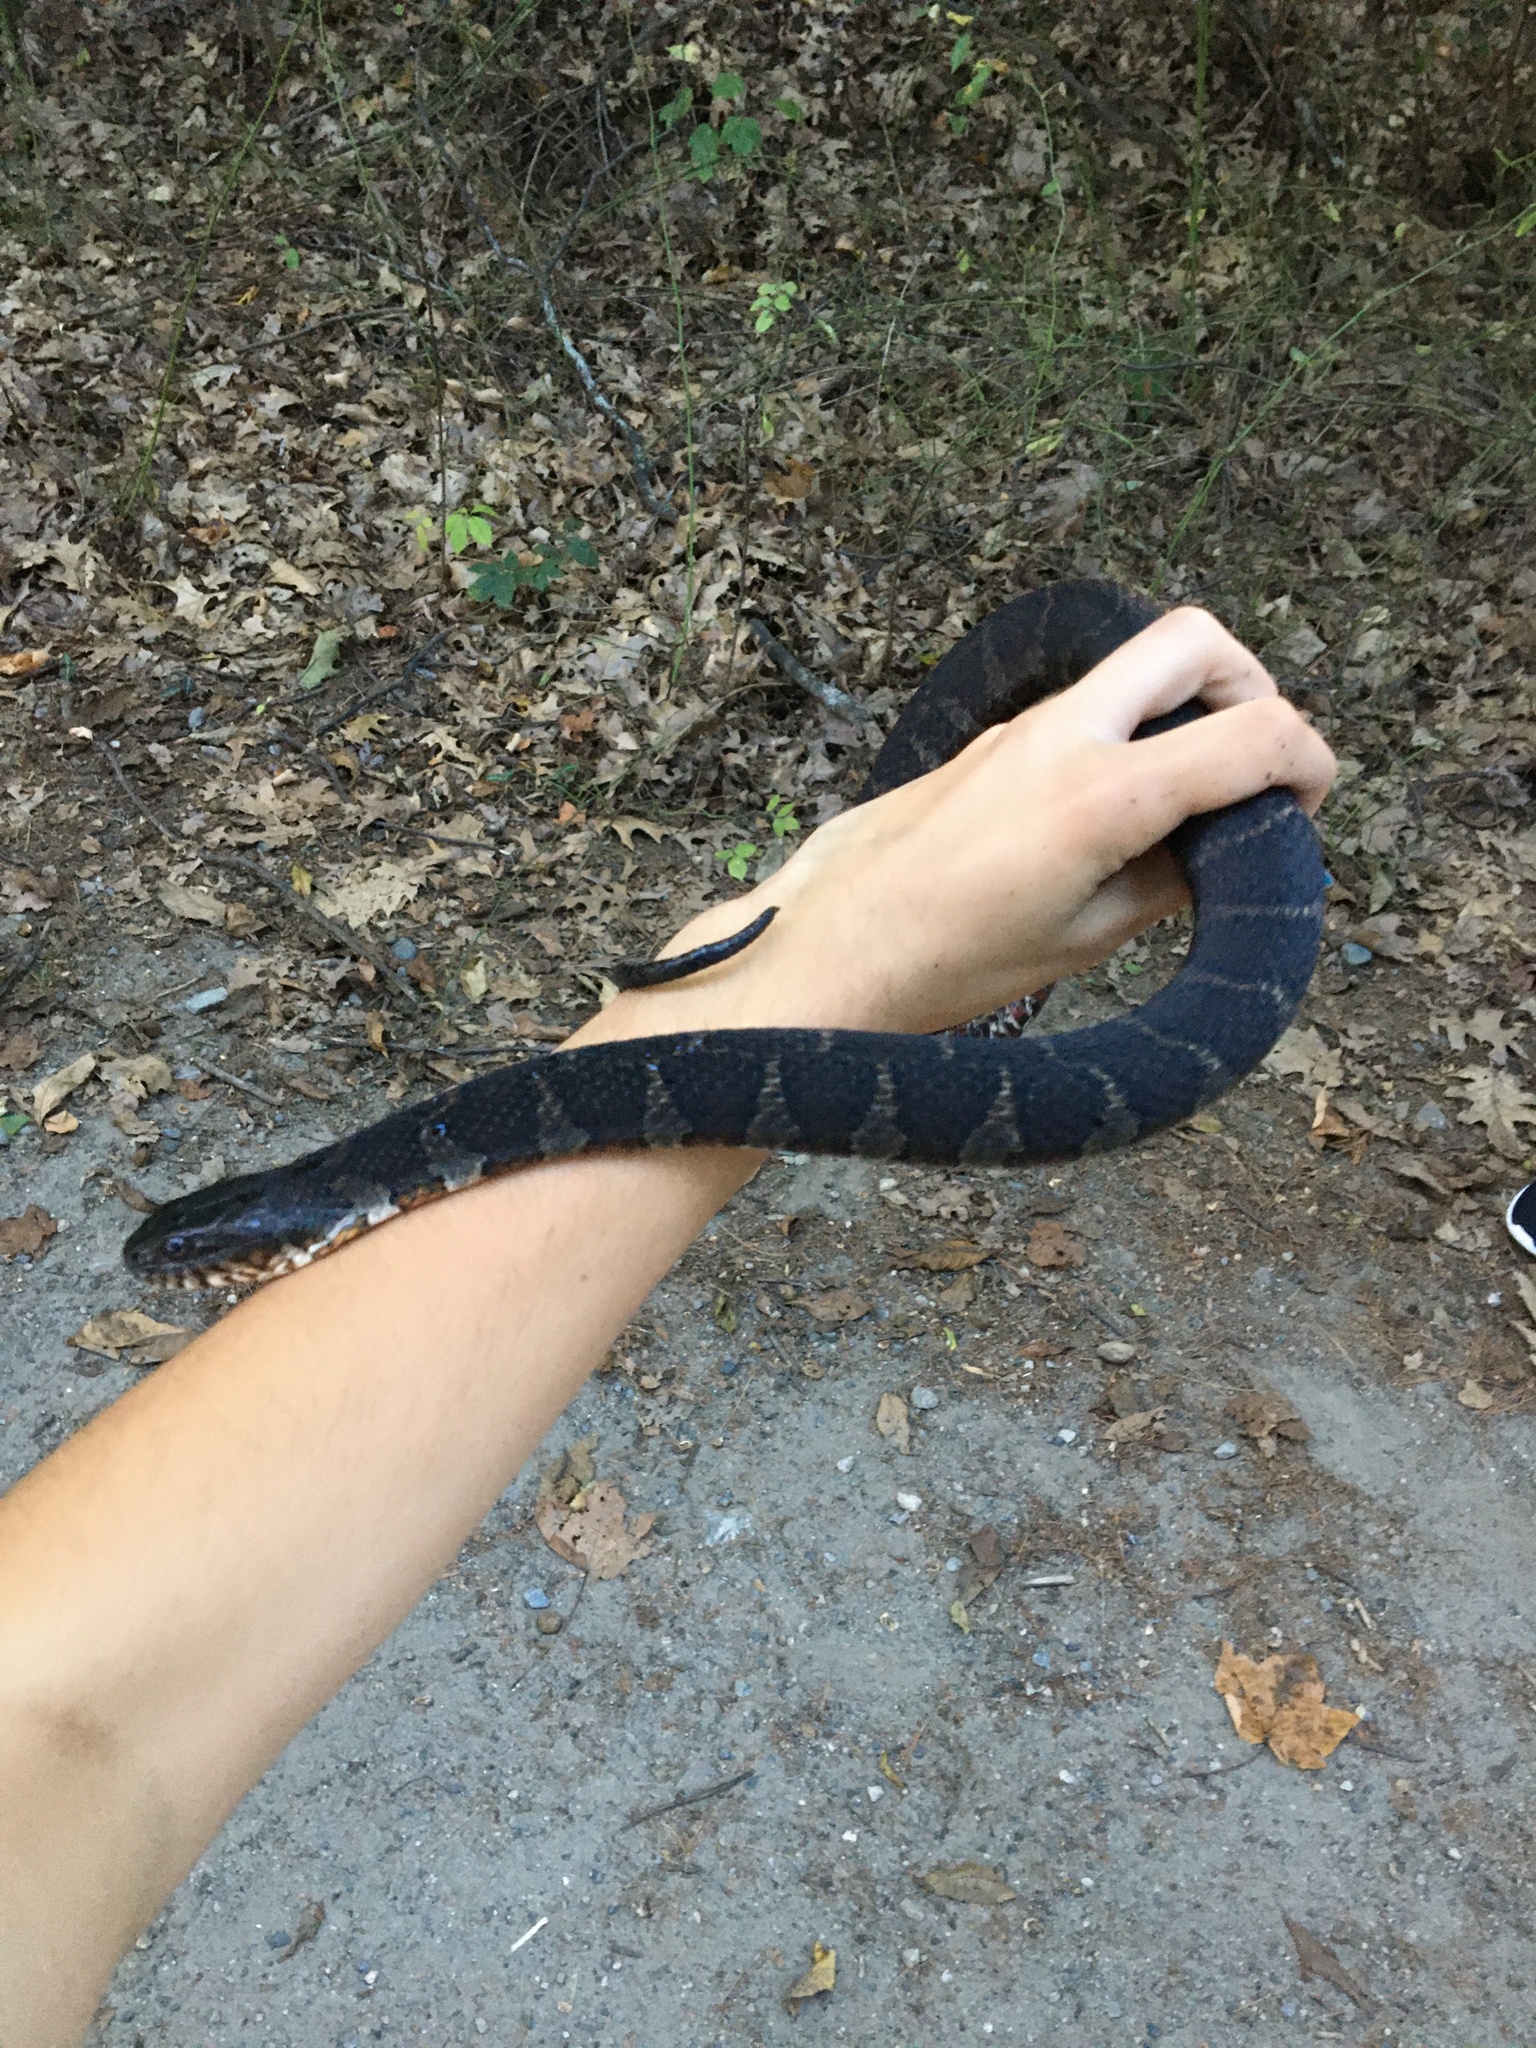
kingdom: Animalia
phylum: Chordata
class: Squamata
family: Colubridae
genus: Nerodia
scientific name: Nerodia sipedon
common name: Northern water snake
